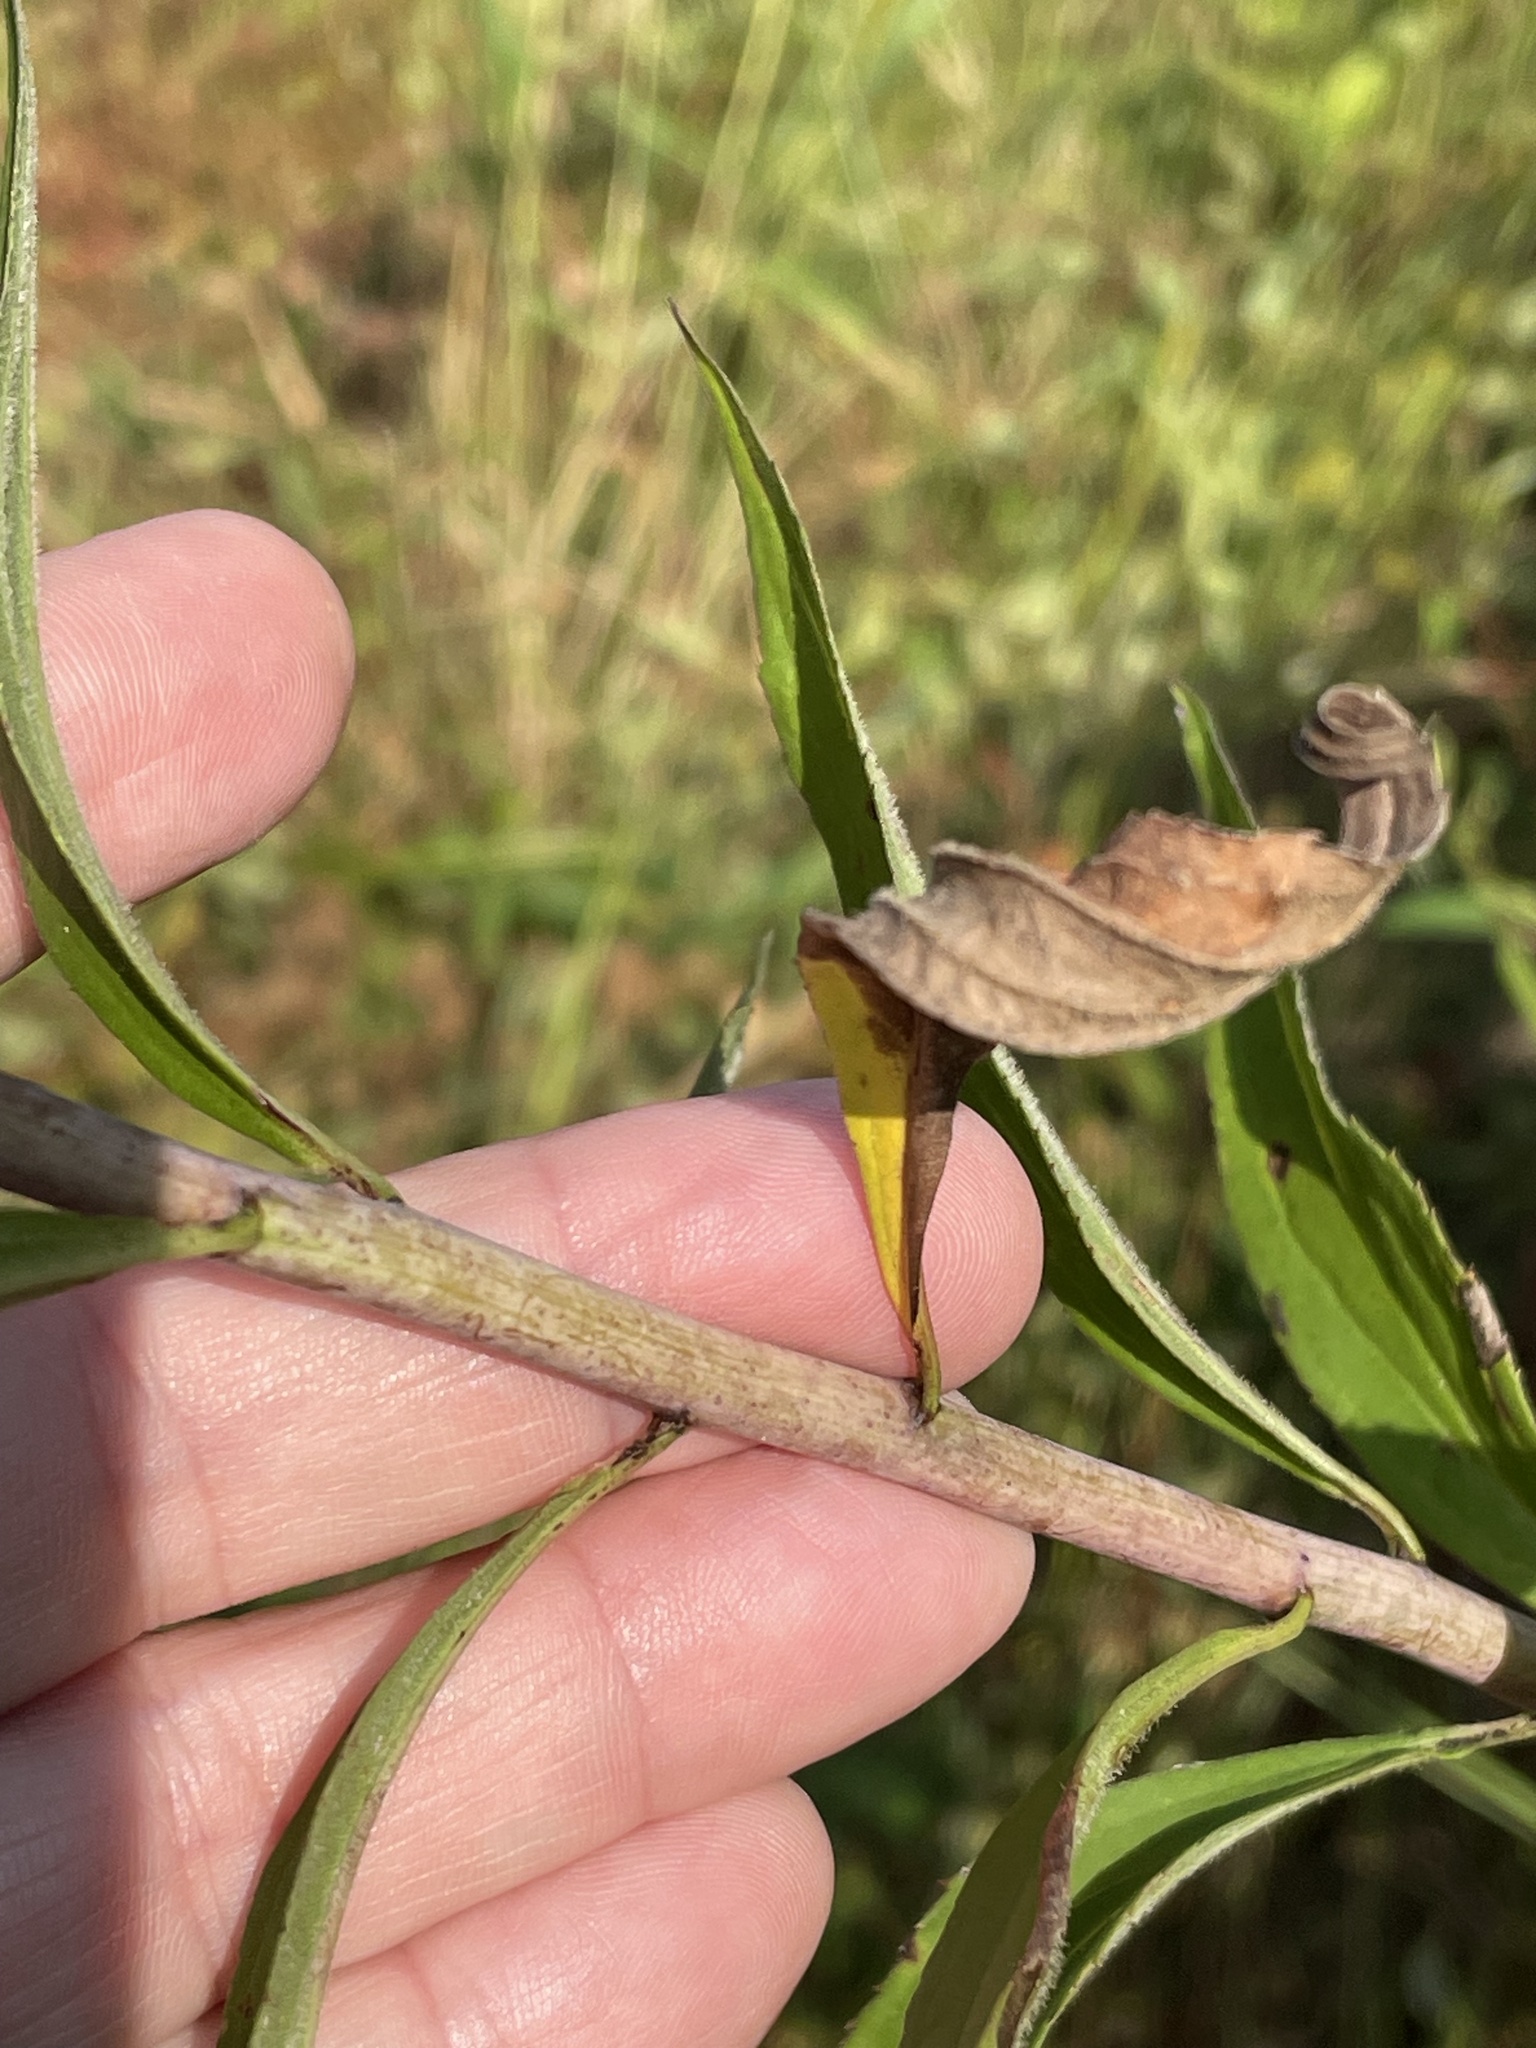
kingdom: Plantae
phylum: Tracheophyta
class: Magnoliopsida
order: Asterales
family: Asteraceae
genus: Solidago
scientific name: Solidago gigantea
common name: Giant goldenrod
